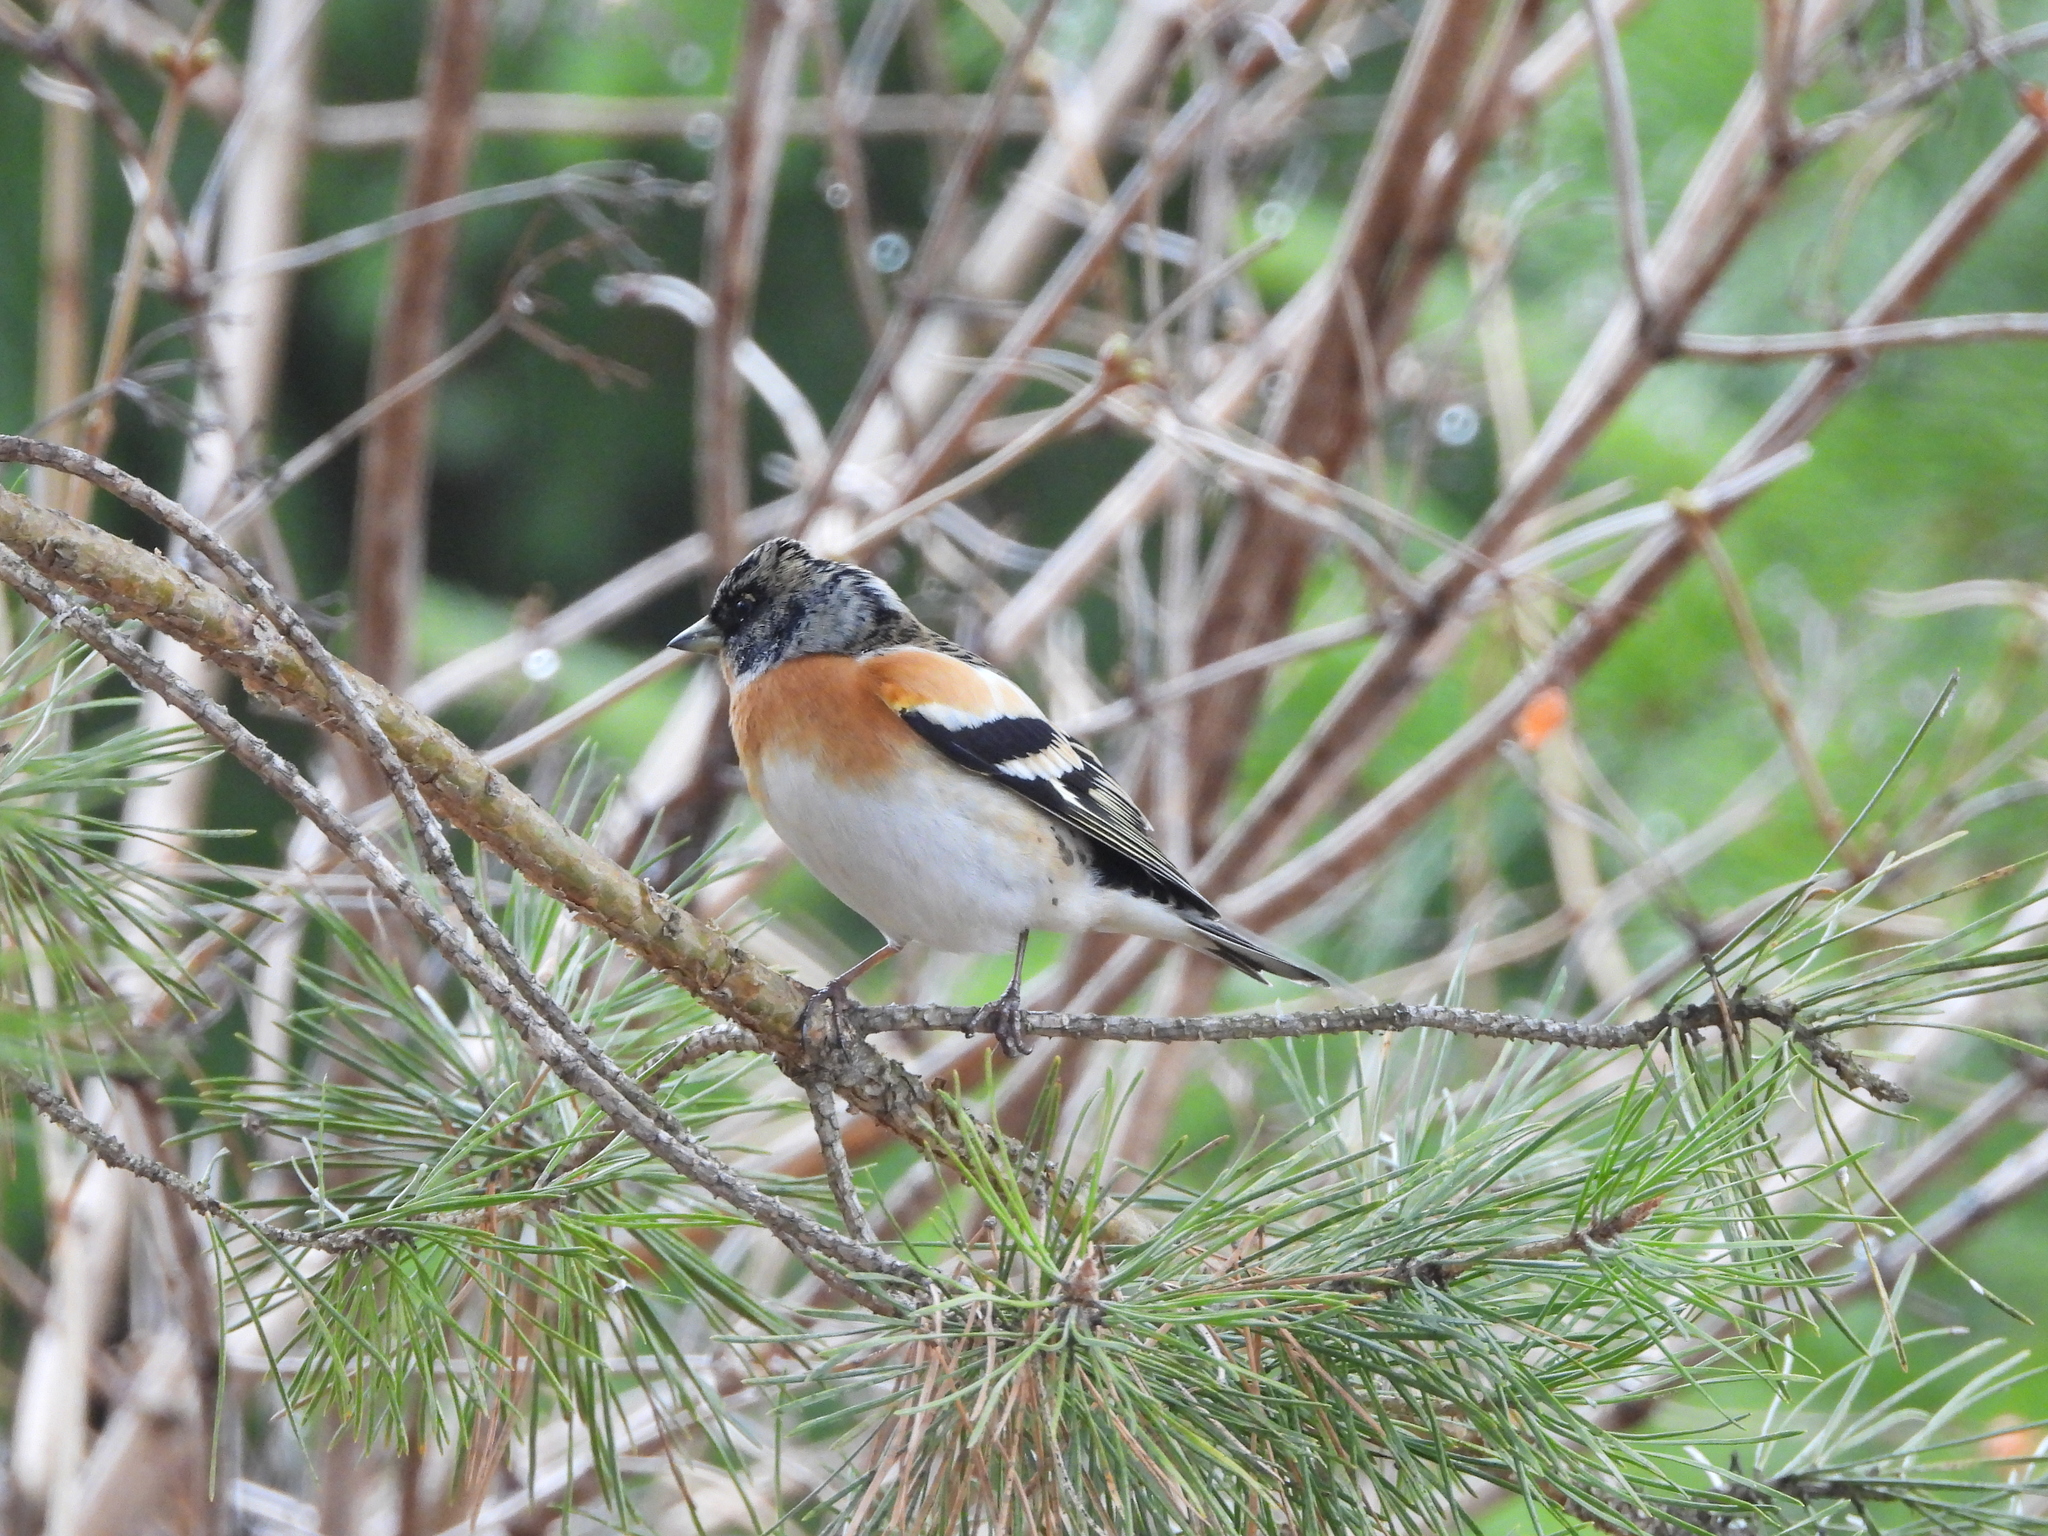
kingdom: Animalia
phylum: Chordata
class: Aves
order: Passeriformes
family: Fringillidae
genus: Fringilla
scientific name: Fringilla montifringilla
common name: Brambling
